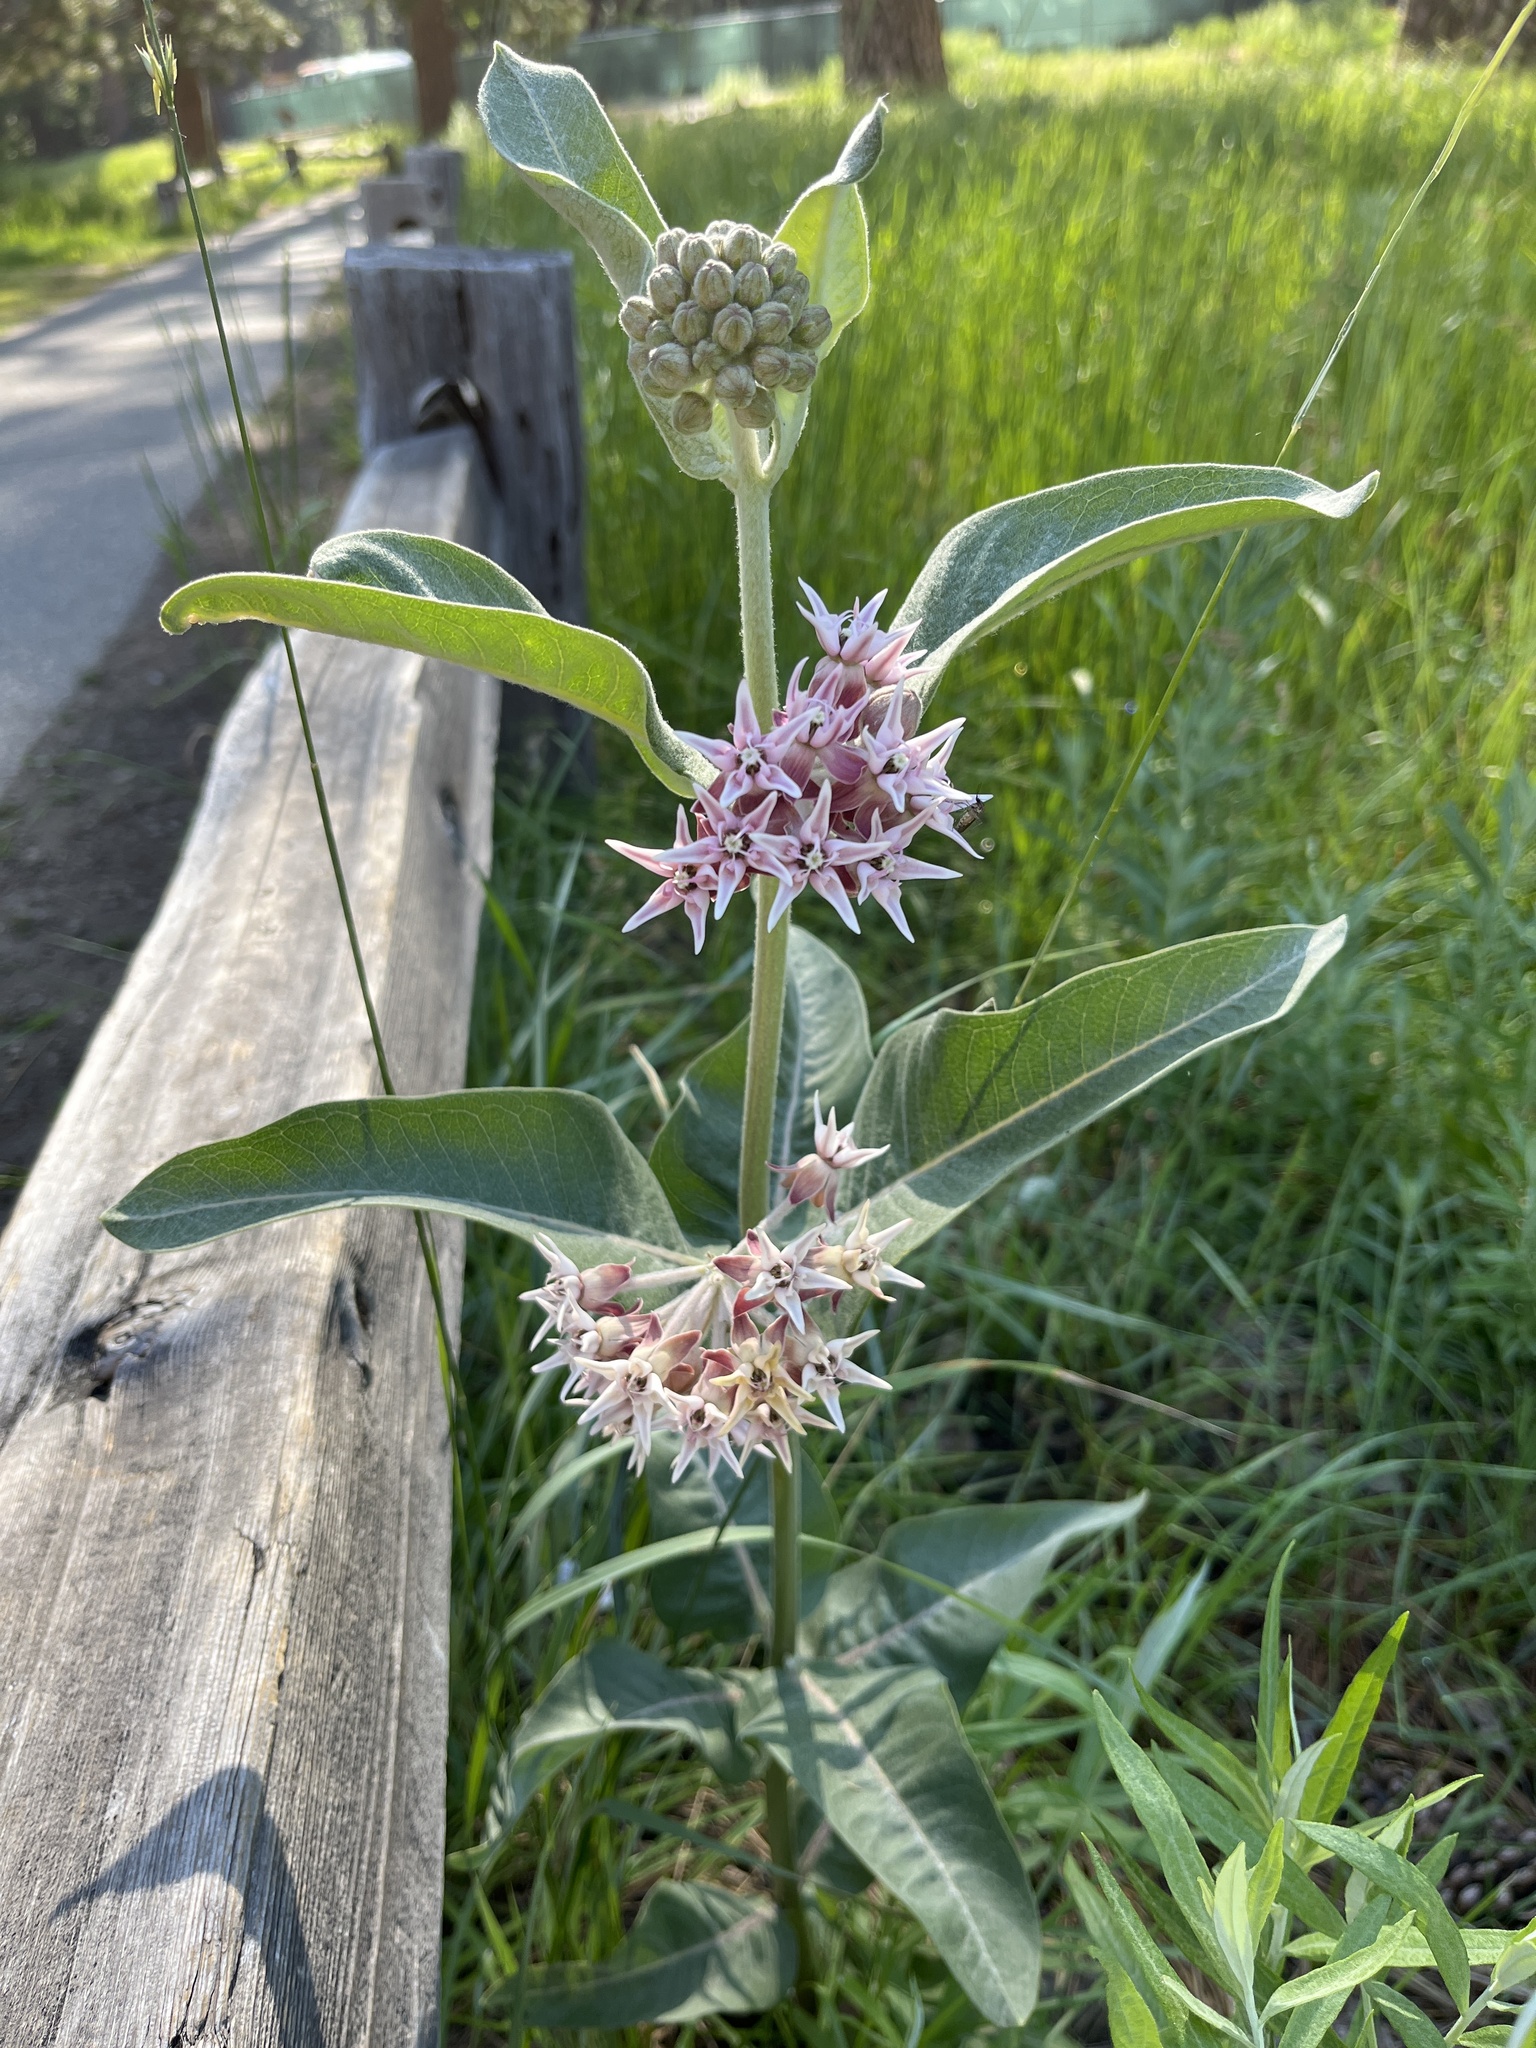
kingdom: Plantae
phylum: Tracheophyta
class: Magnoliopsida
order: Gentianales
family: Apocynaceae
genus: Asclepias
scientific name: Asclepias speciosa
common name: Showy milkweed
